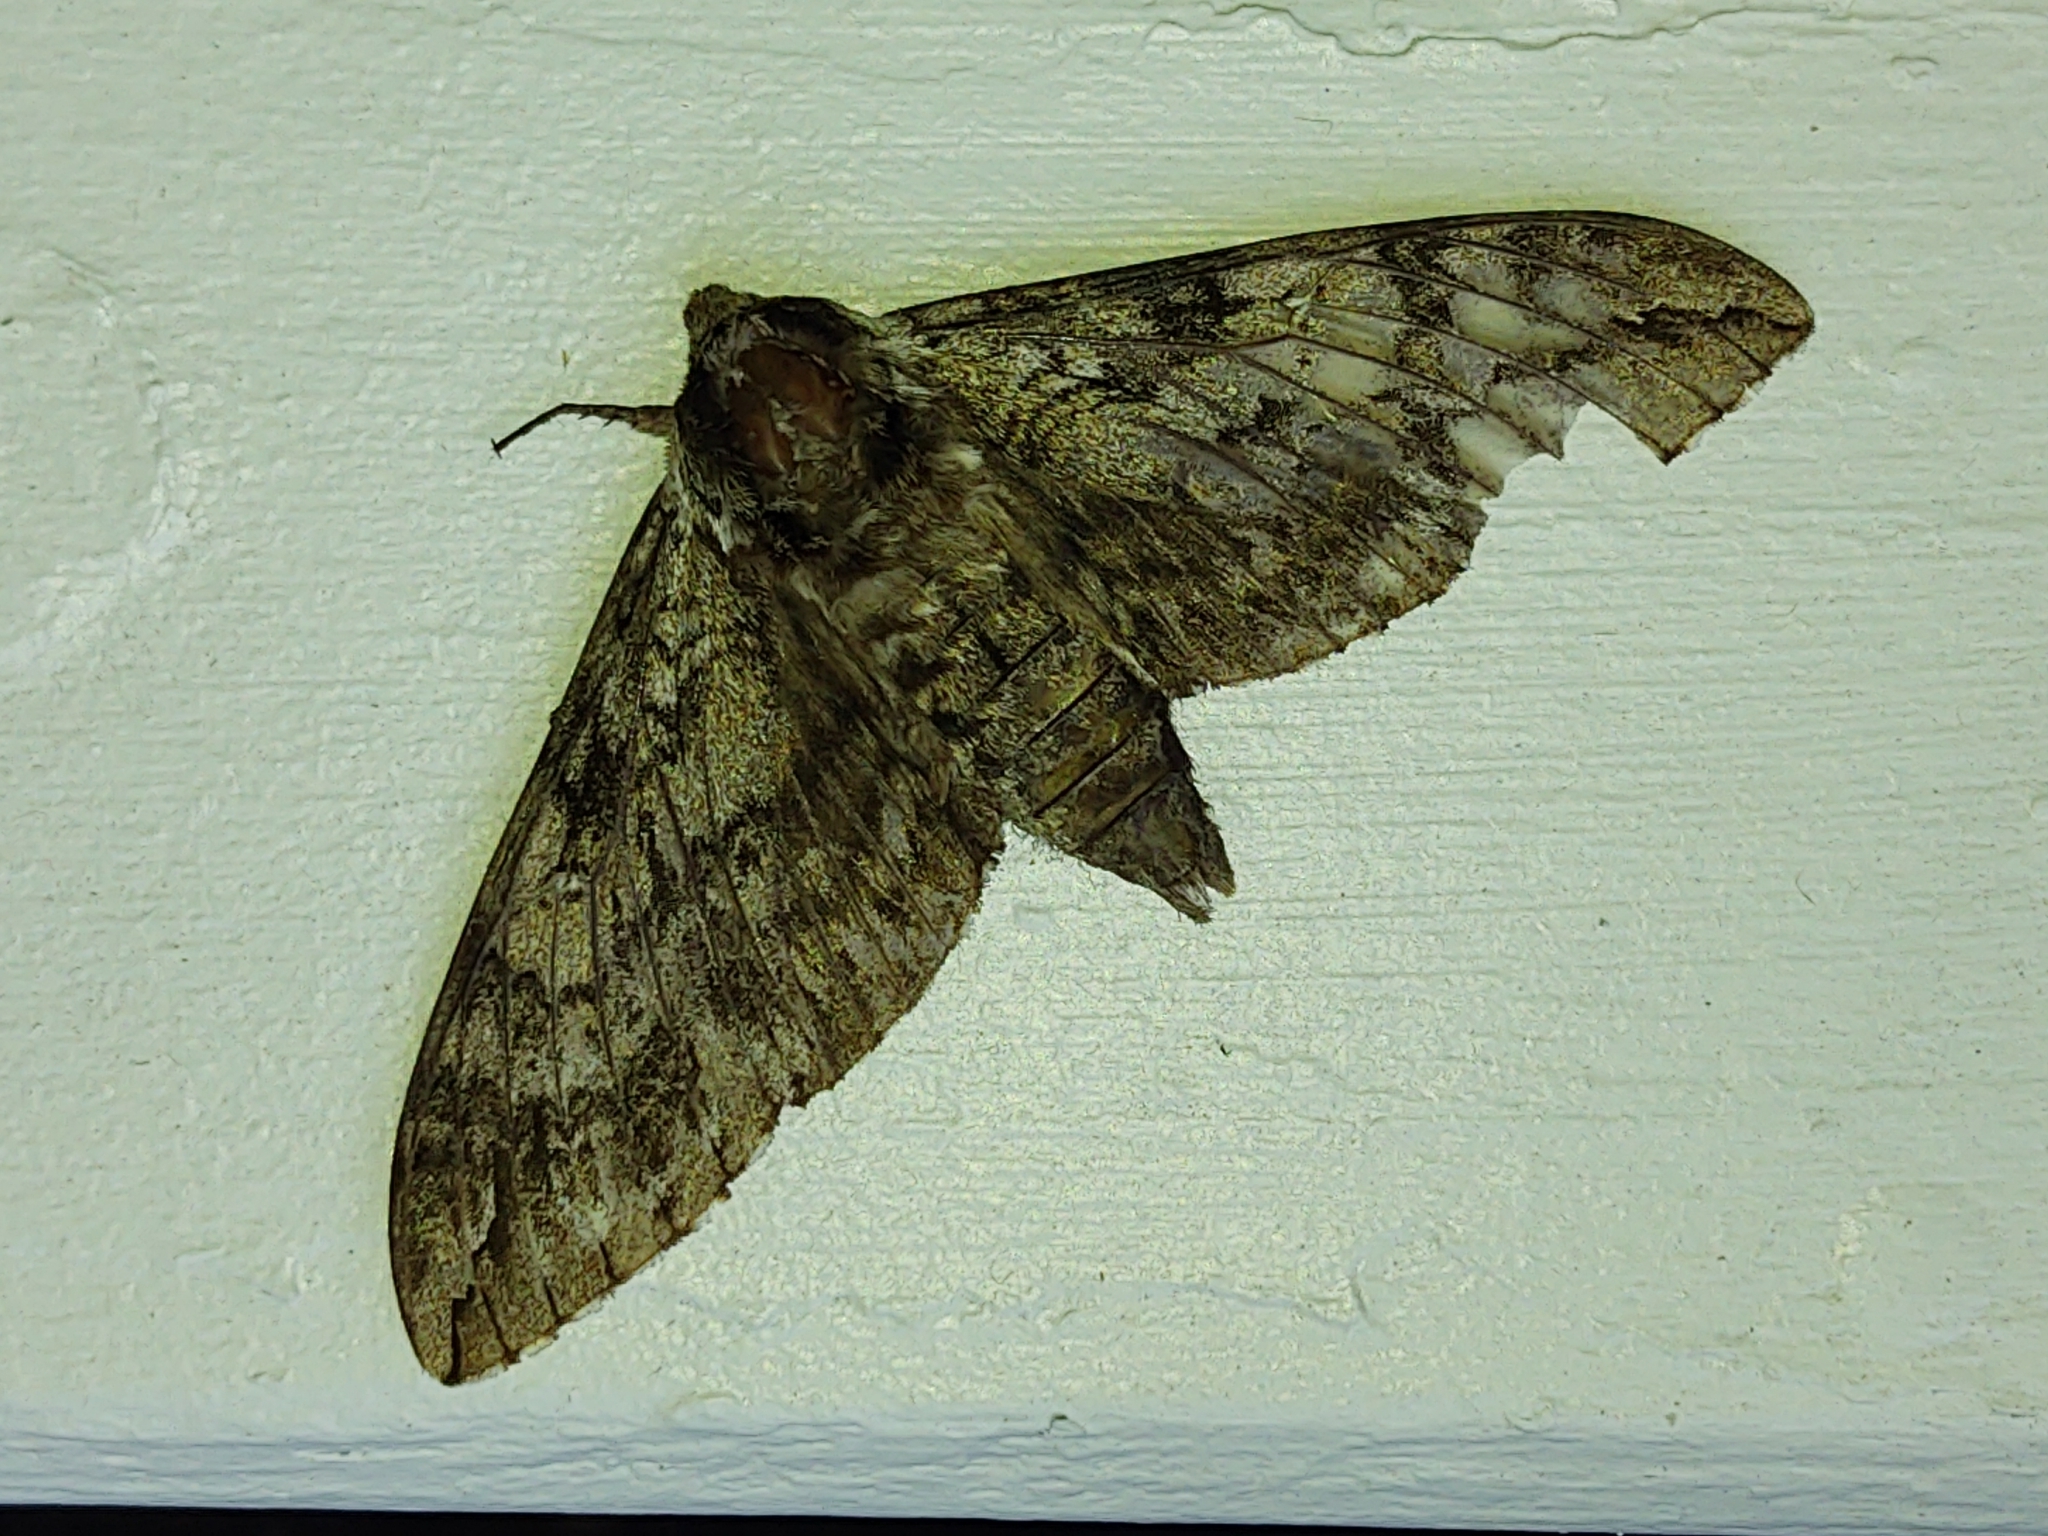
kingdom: Animalia
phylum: Arthropoda
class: Insecta
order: Lepidoptera
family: Sphingidae
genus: Ceratomia
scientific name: Ceratomia undulosa
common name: Waved sphinx
